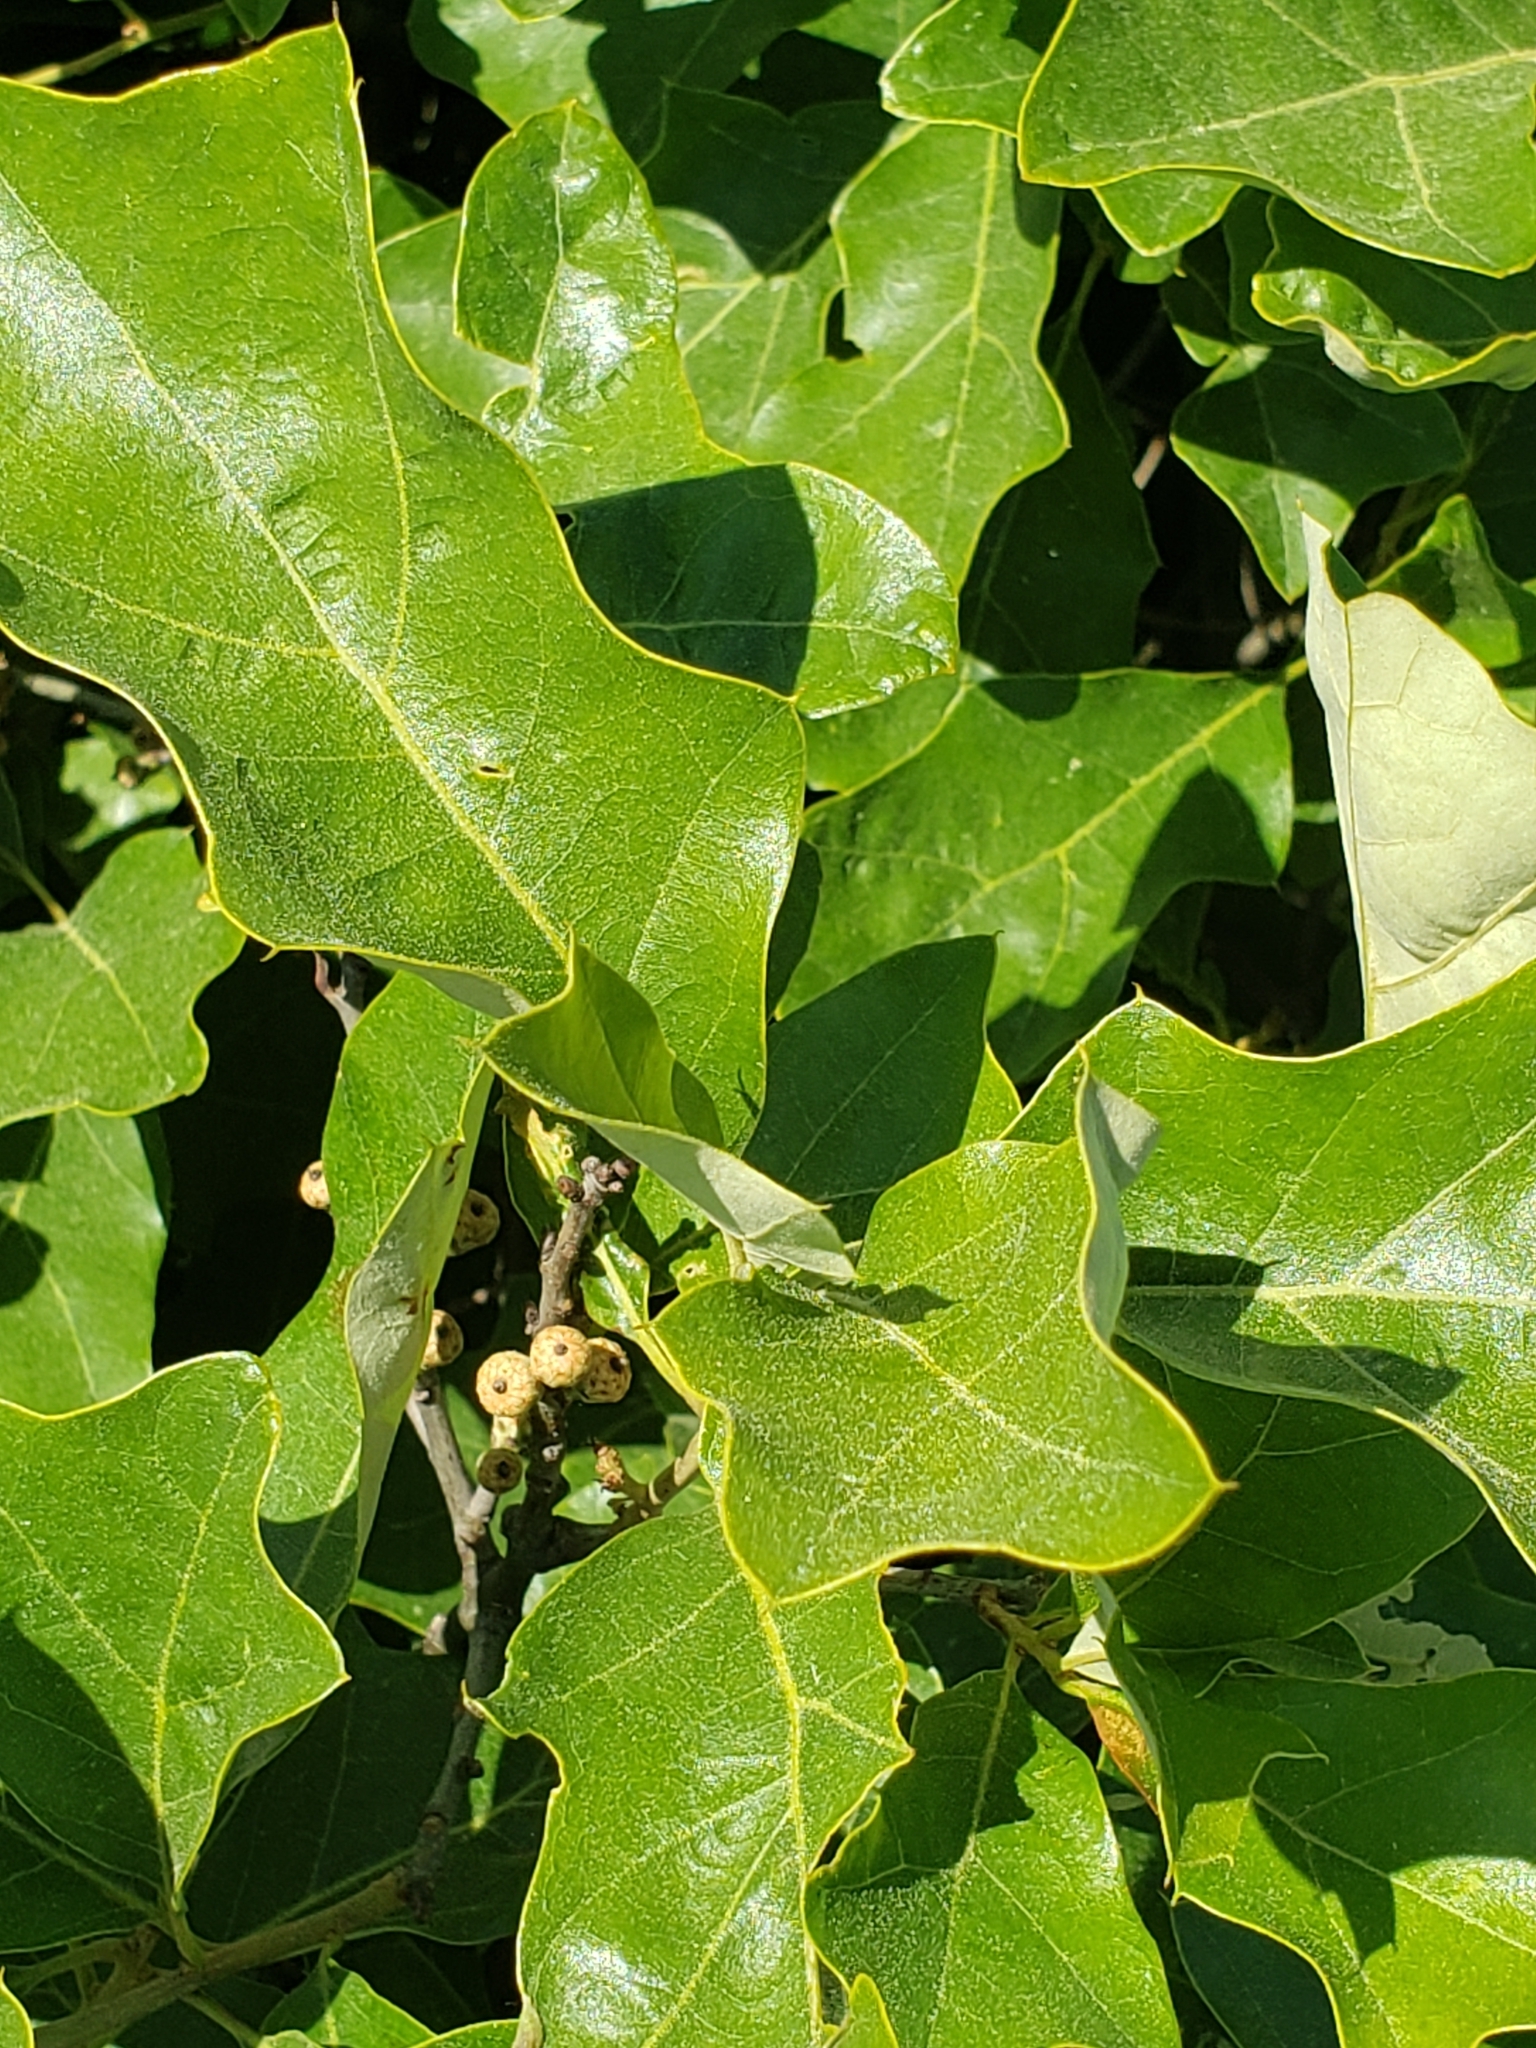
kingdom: Plantae
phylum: Tracheophyta
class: Magnoliopsida
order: Fagales
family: Fagaceae
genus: Quercus
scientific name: Quercus ilicifolia
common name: Bear oak
